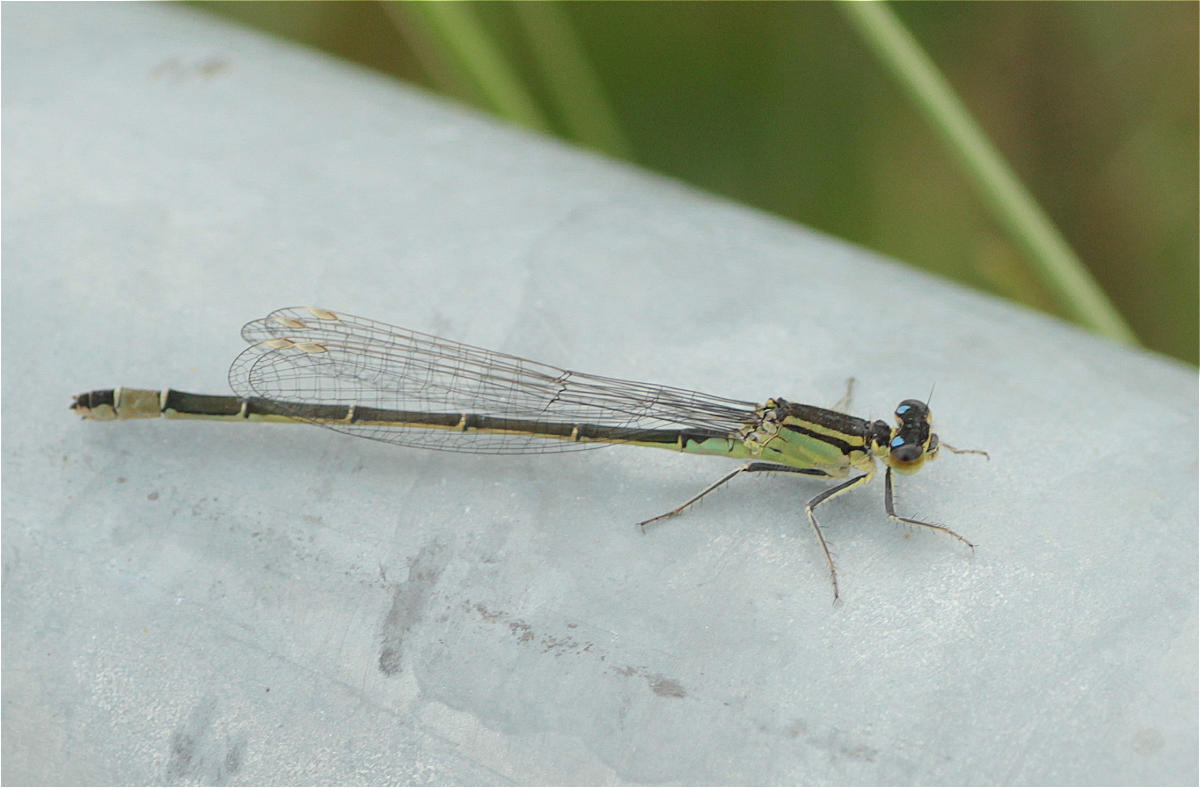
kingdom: Animalia
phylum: Arthropoda
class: Insecta
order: Odonata
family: Coenagrionidae
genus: Ischnura
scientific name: Ischnura elegans
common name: Blue-tailed damselfly
